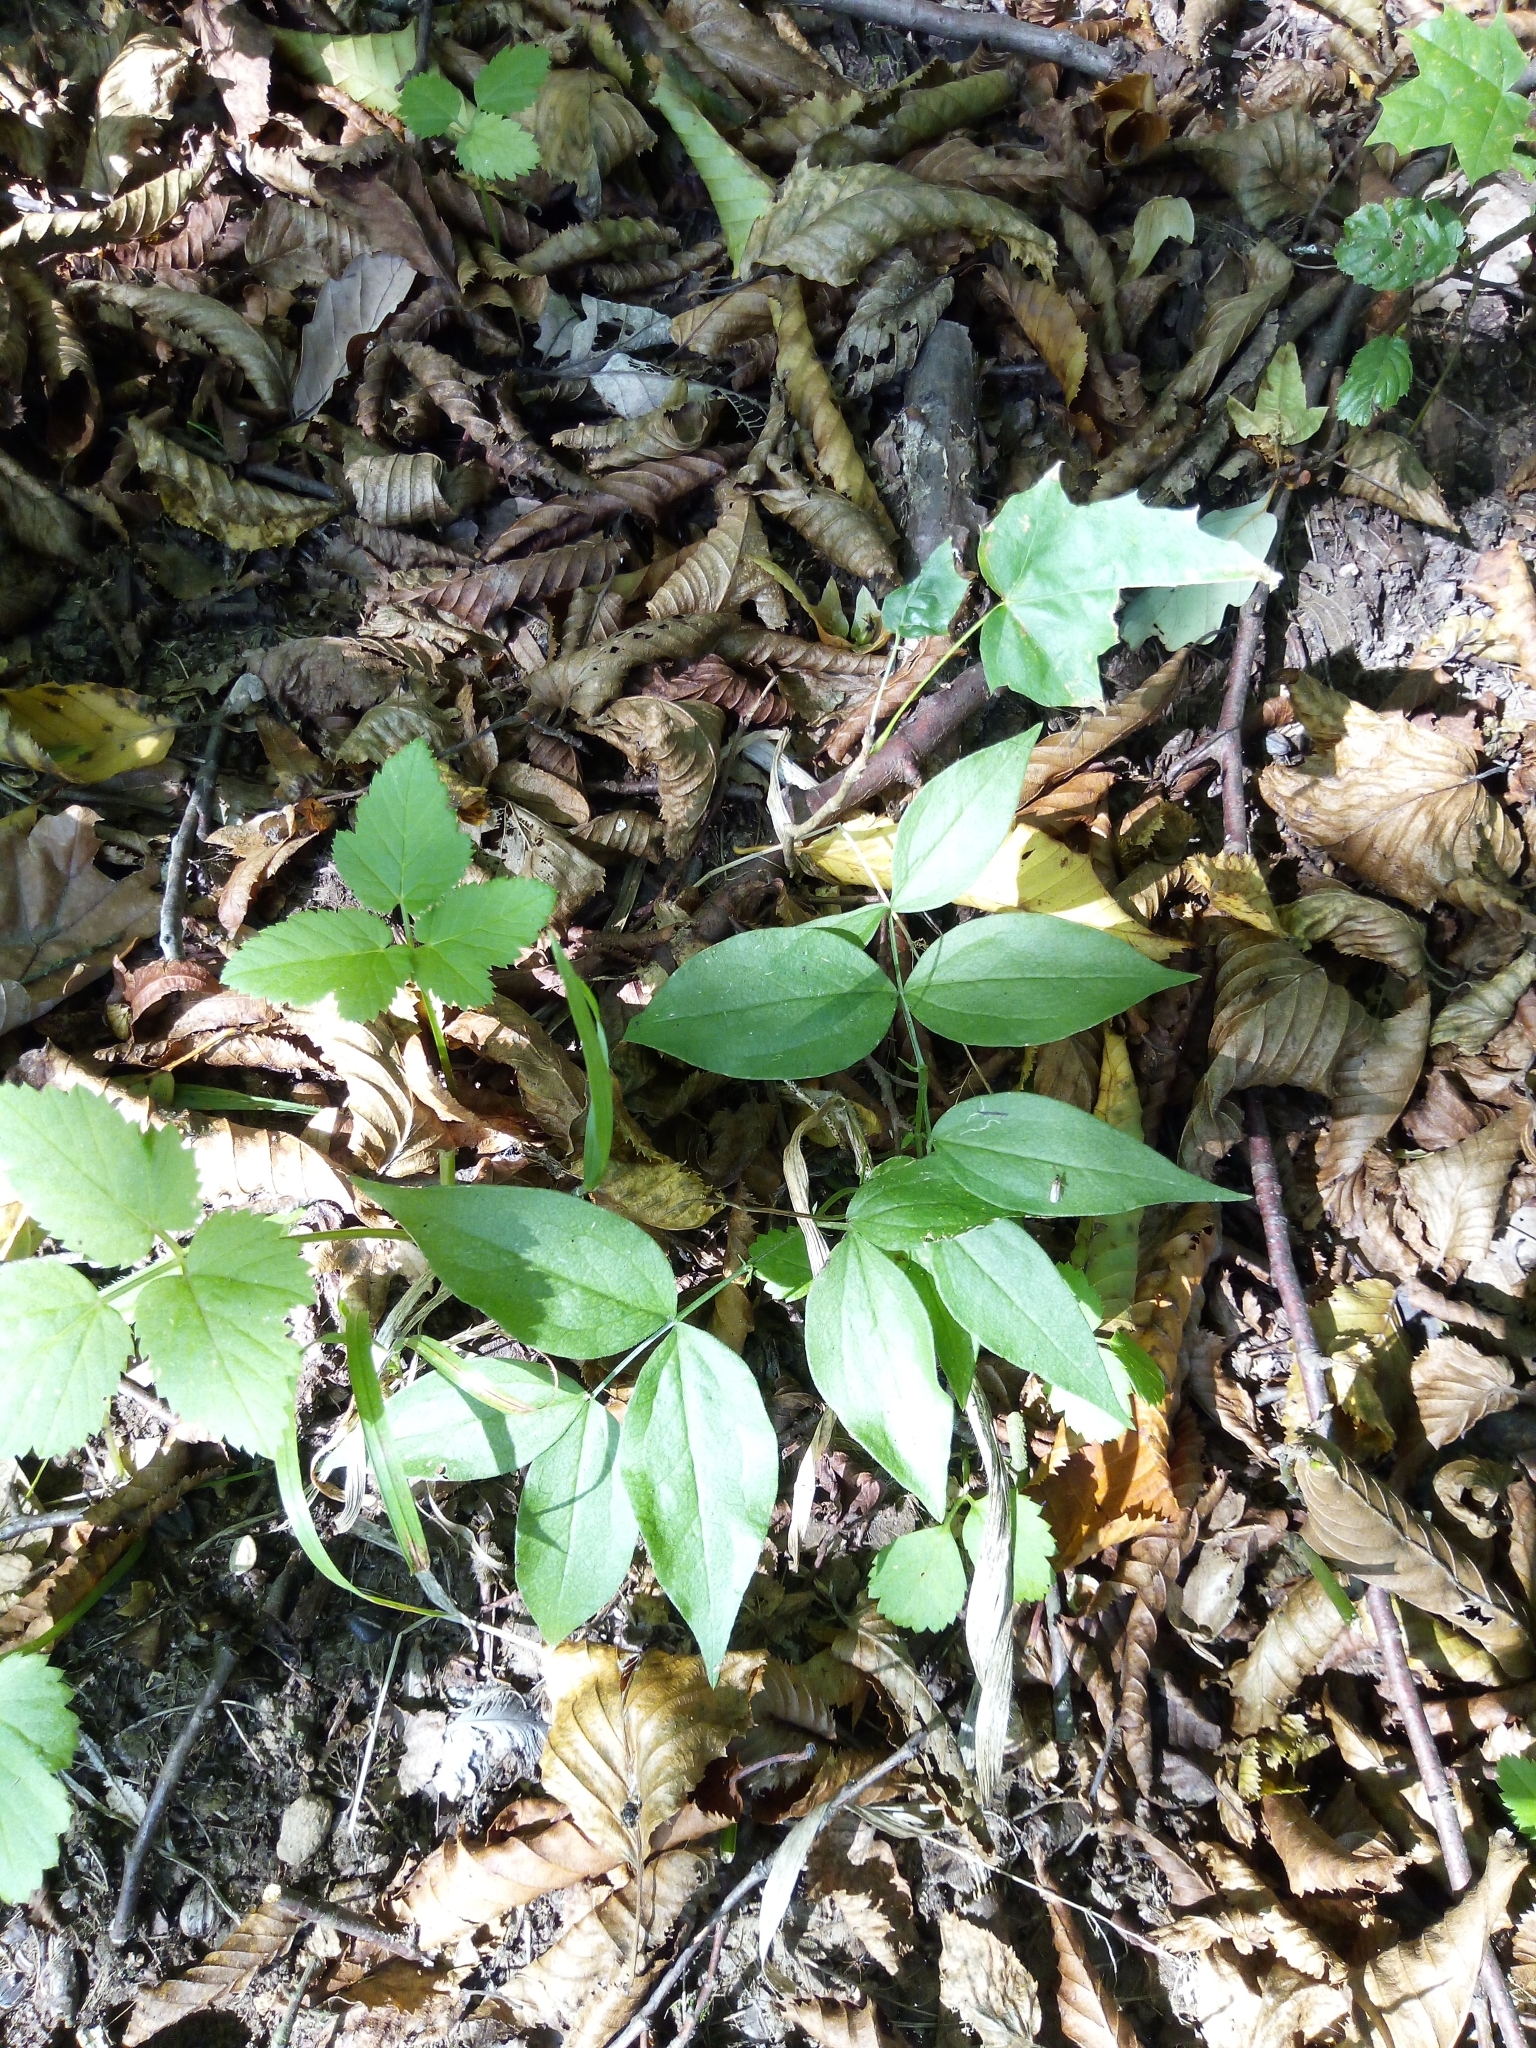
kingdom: Plantae
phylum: Tracheophyta
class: Magnoliopsida
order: Fabales
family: Fabaceae
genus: Lathyrus
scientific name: Lathyrus vernus
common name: Spring pea
